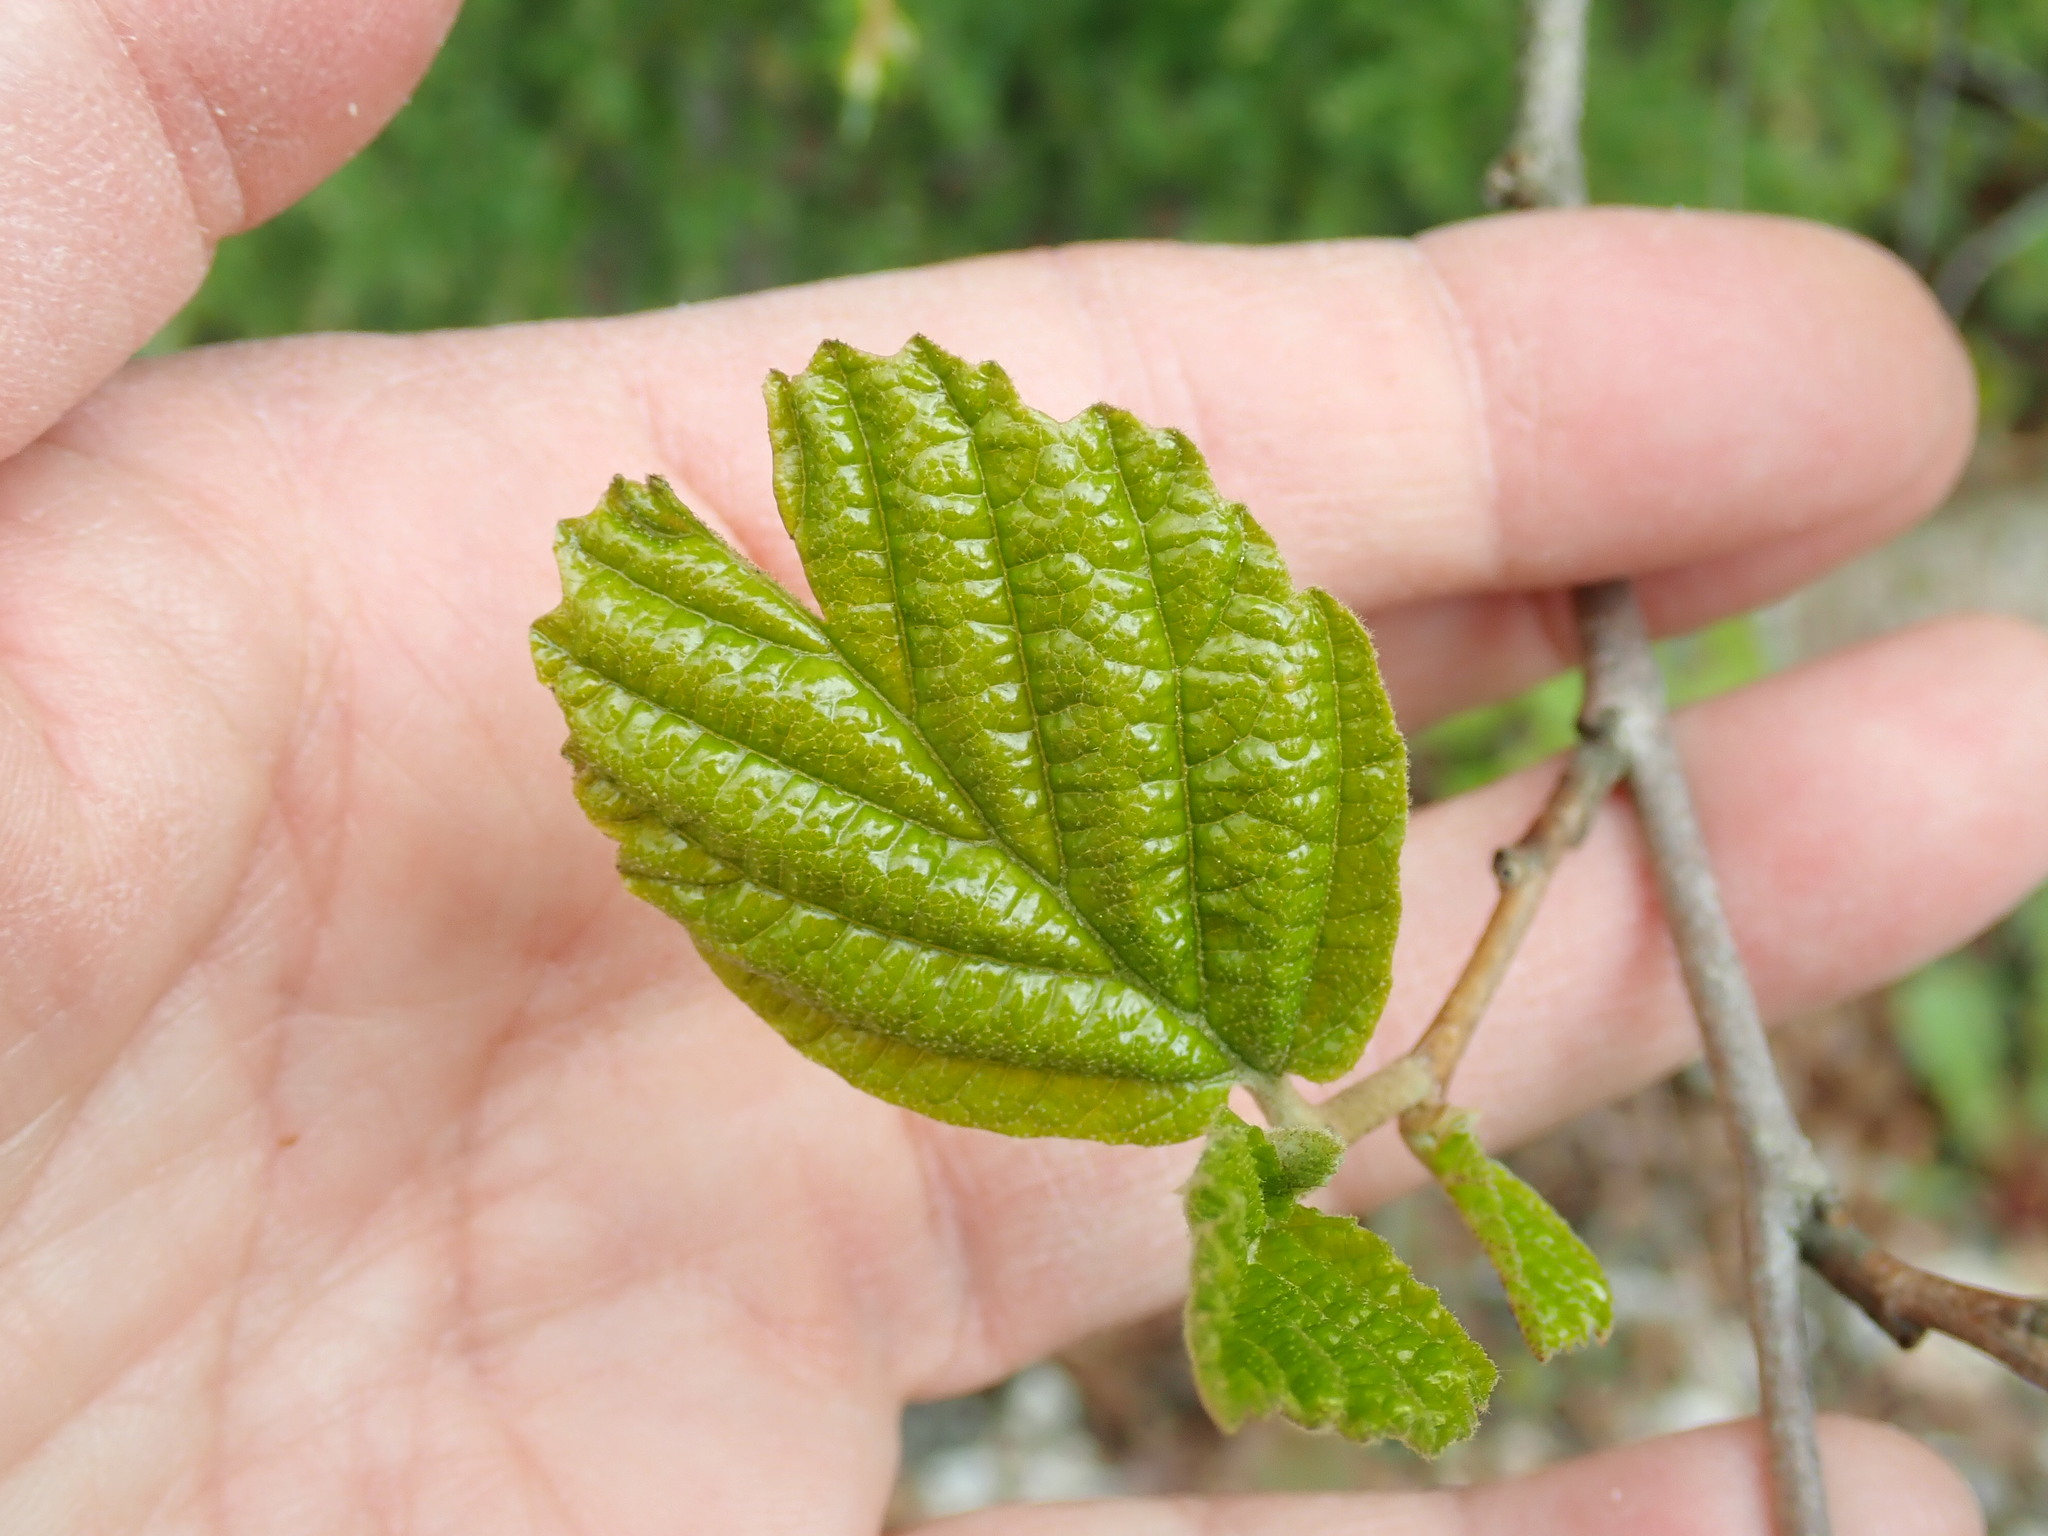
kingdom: Plantae
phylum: Tracheophyta
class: Magnoliopsida
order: Saxifragales
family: Hamamelidaceae
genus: Hamamelis
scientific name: Hamamelis virginiana
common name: Witch-hazel
